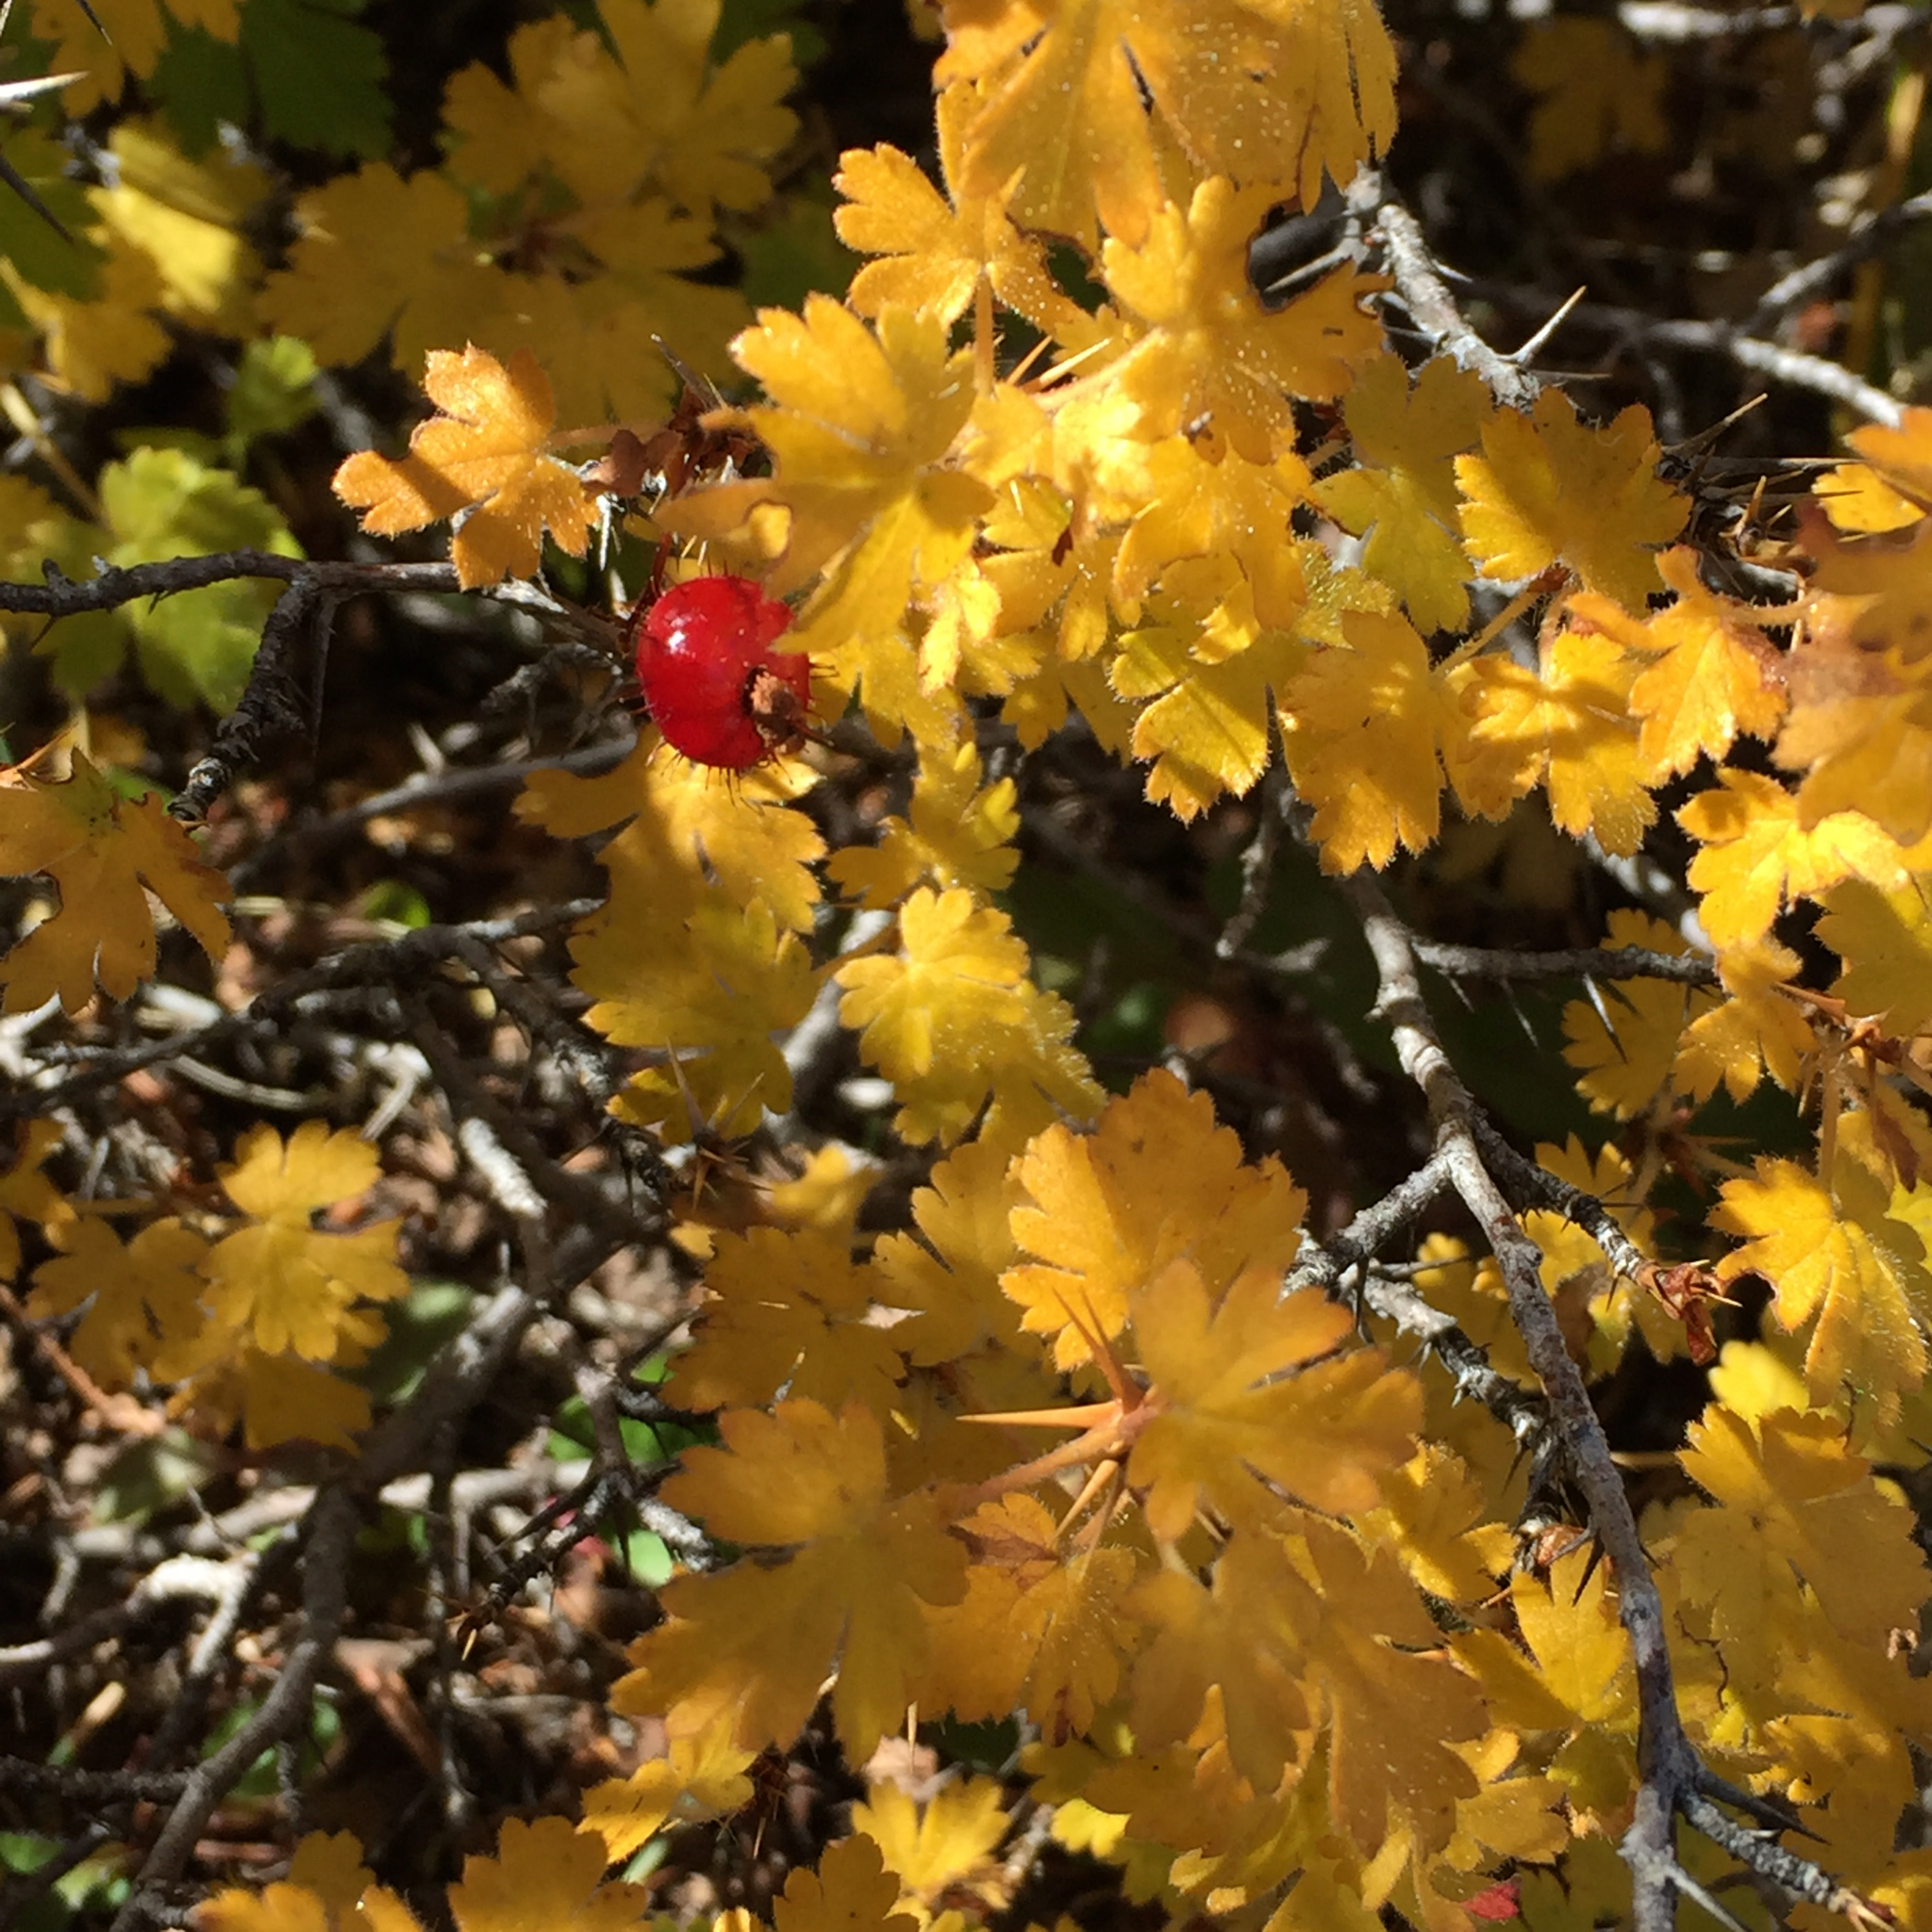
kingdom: Plantae
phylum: Tracheophyta
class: Magnoliopsida
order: Saxifragales
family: Grossulariaceae
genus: Ribes
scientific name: Ribes montigenum
